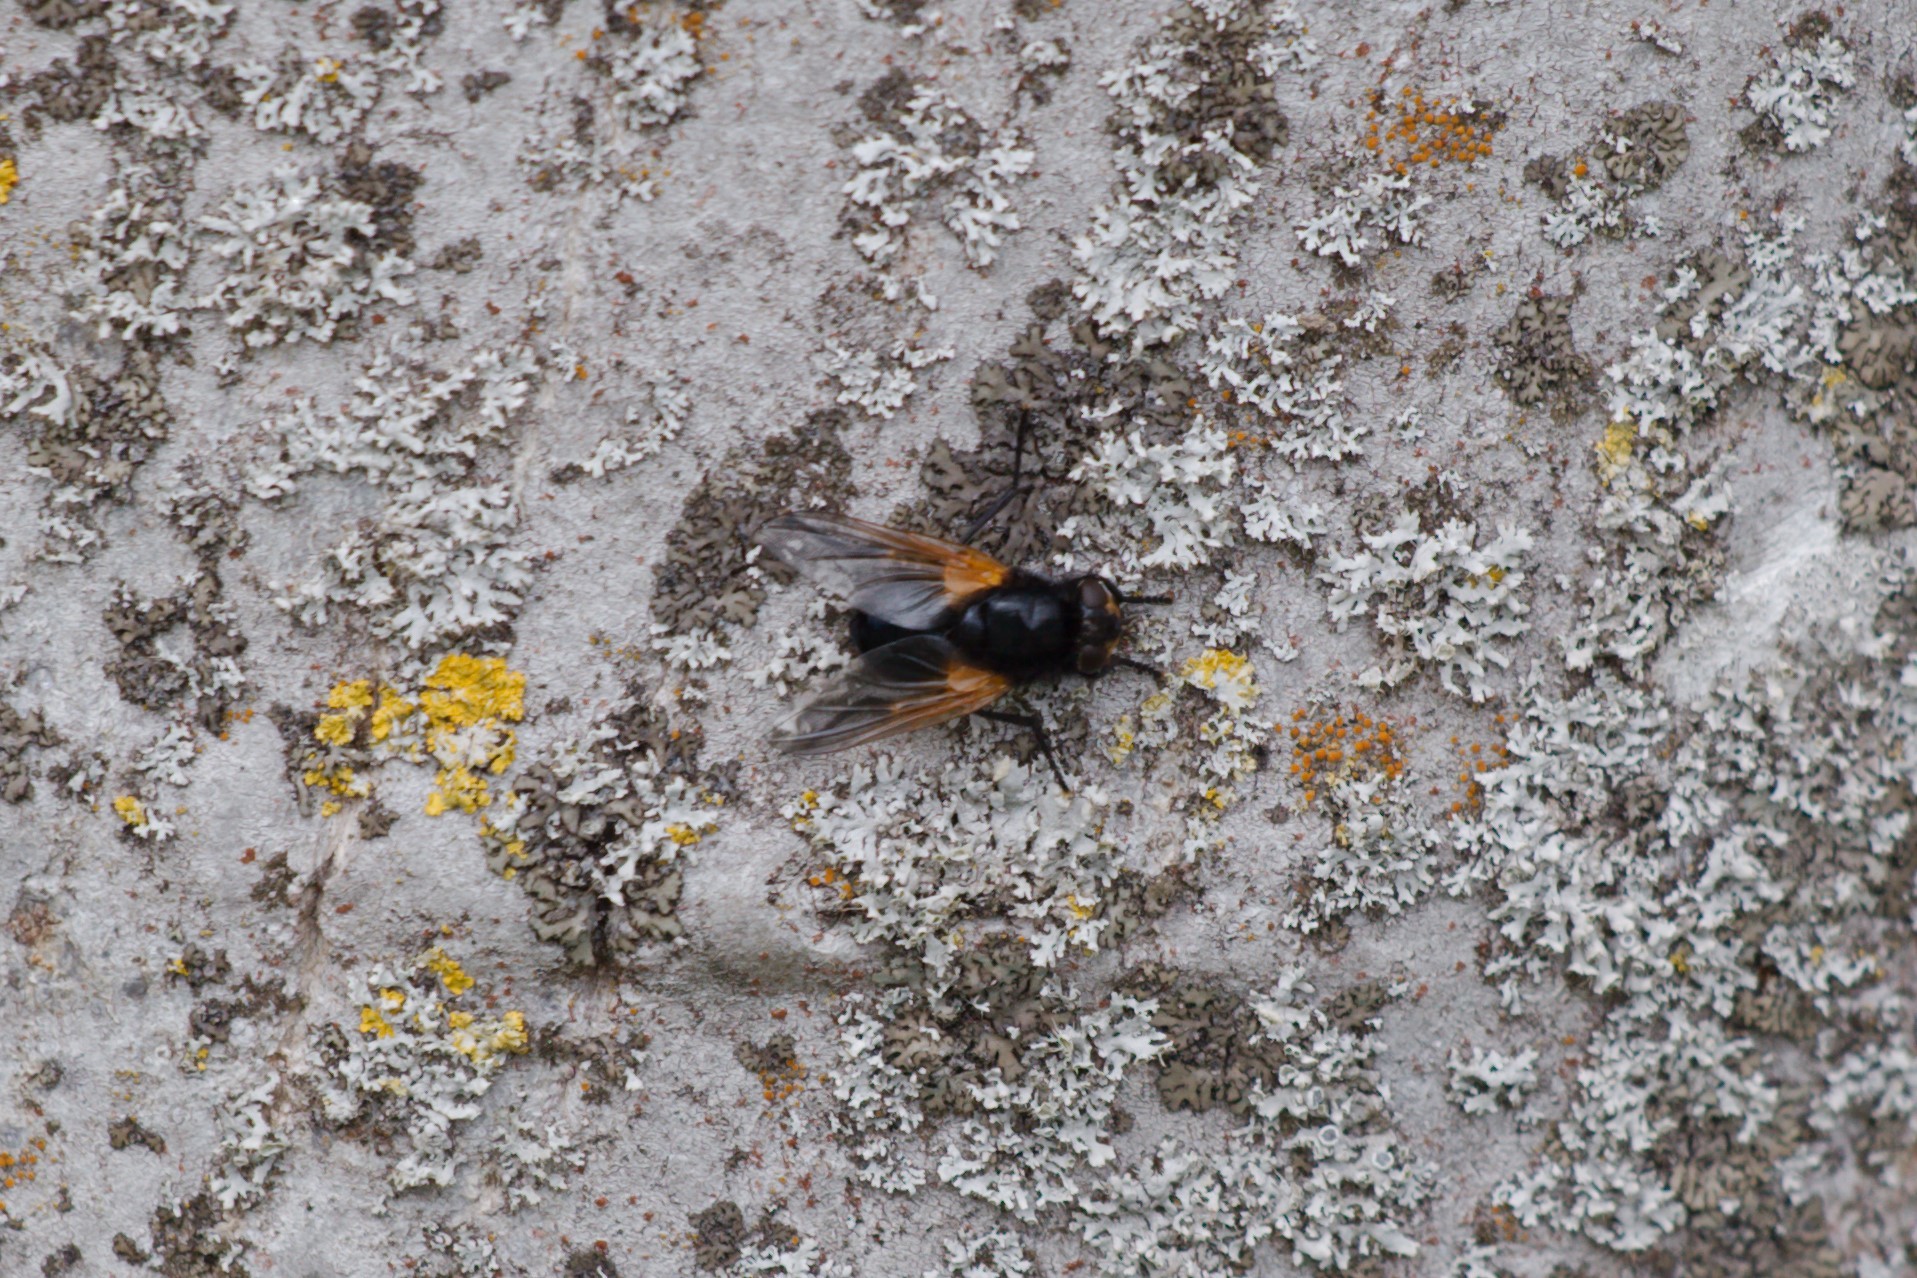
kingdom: Animalia
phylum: Arthropoda
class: Insecta
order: Diptera
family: Muscidae
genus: Mesembrina
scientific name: Mesembrina meridiana
